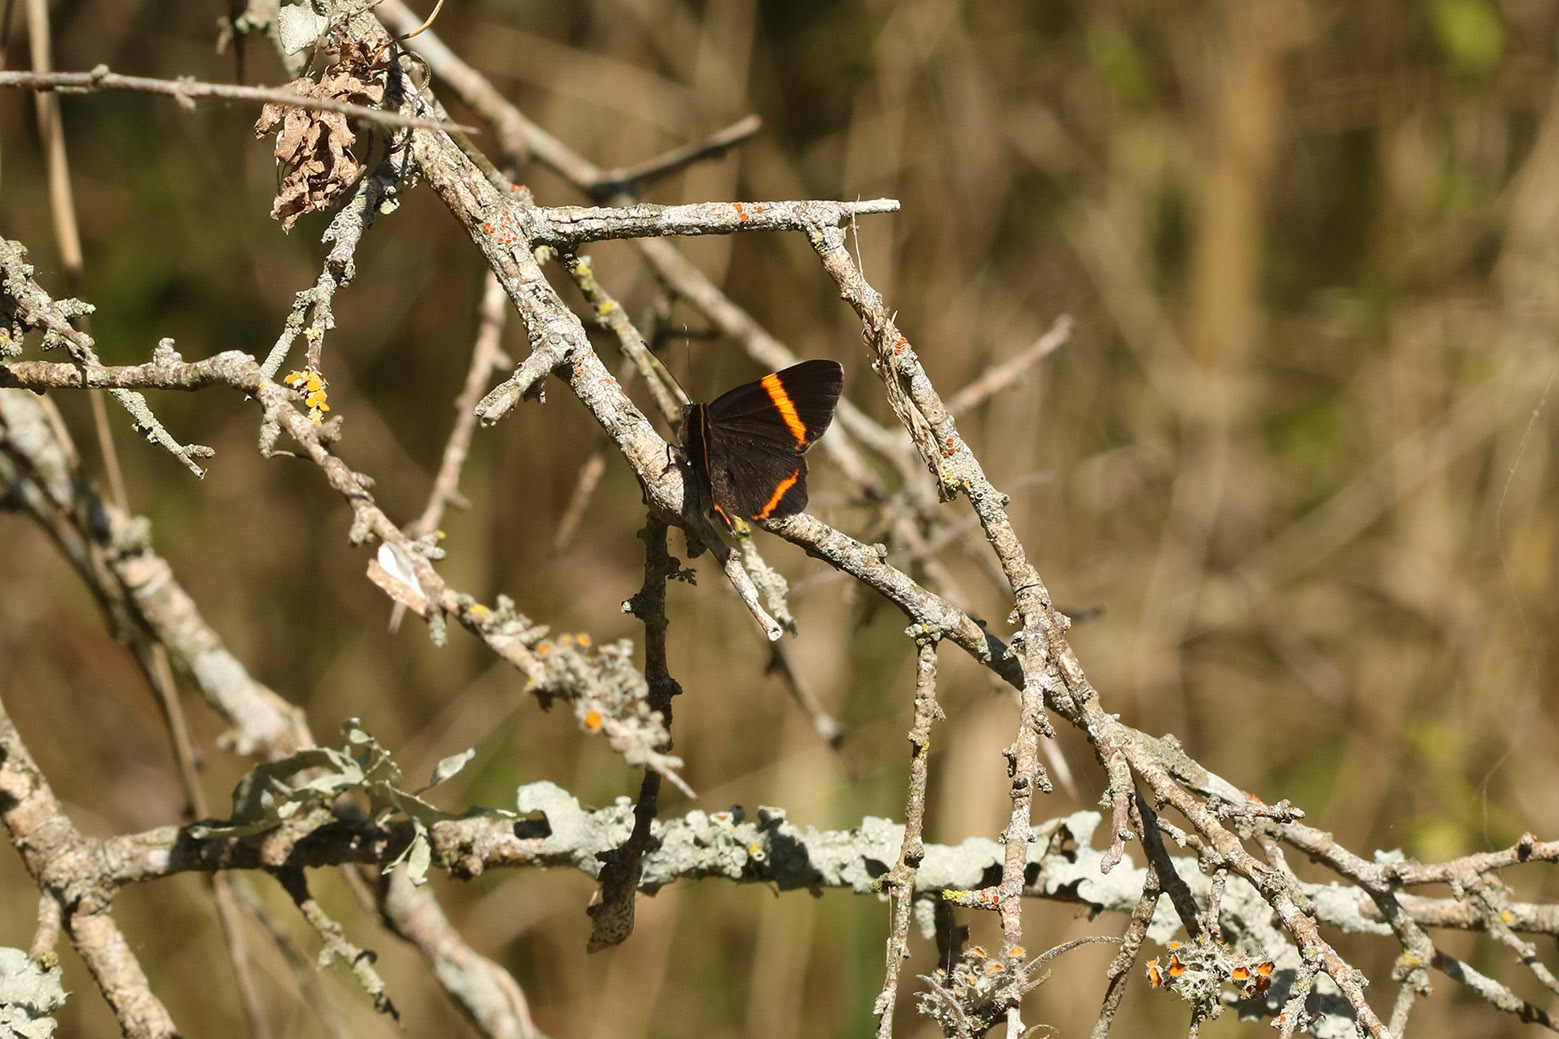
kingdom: Animalia
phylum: Arthropoda
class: Insecta
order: Lepidoptera
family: Riodinidae
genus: Riodina
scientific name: Riodina lysippoides
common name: Little dancer metalmark
